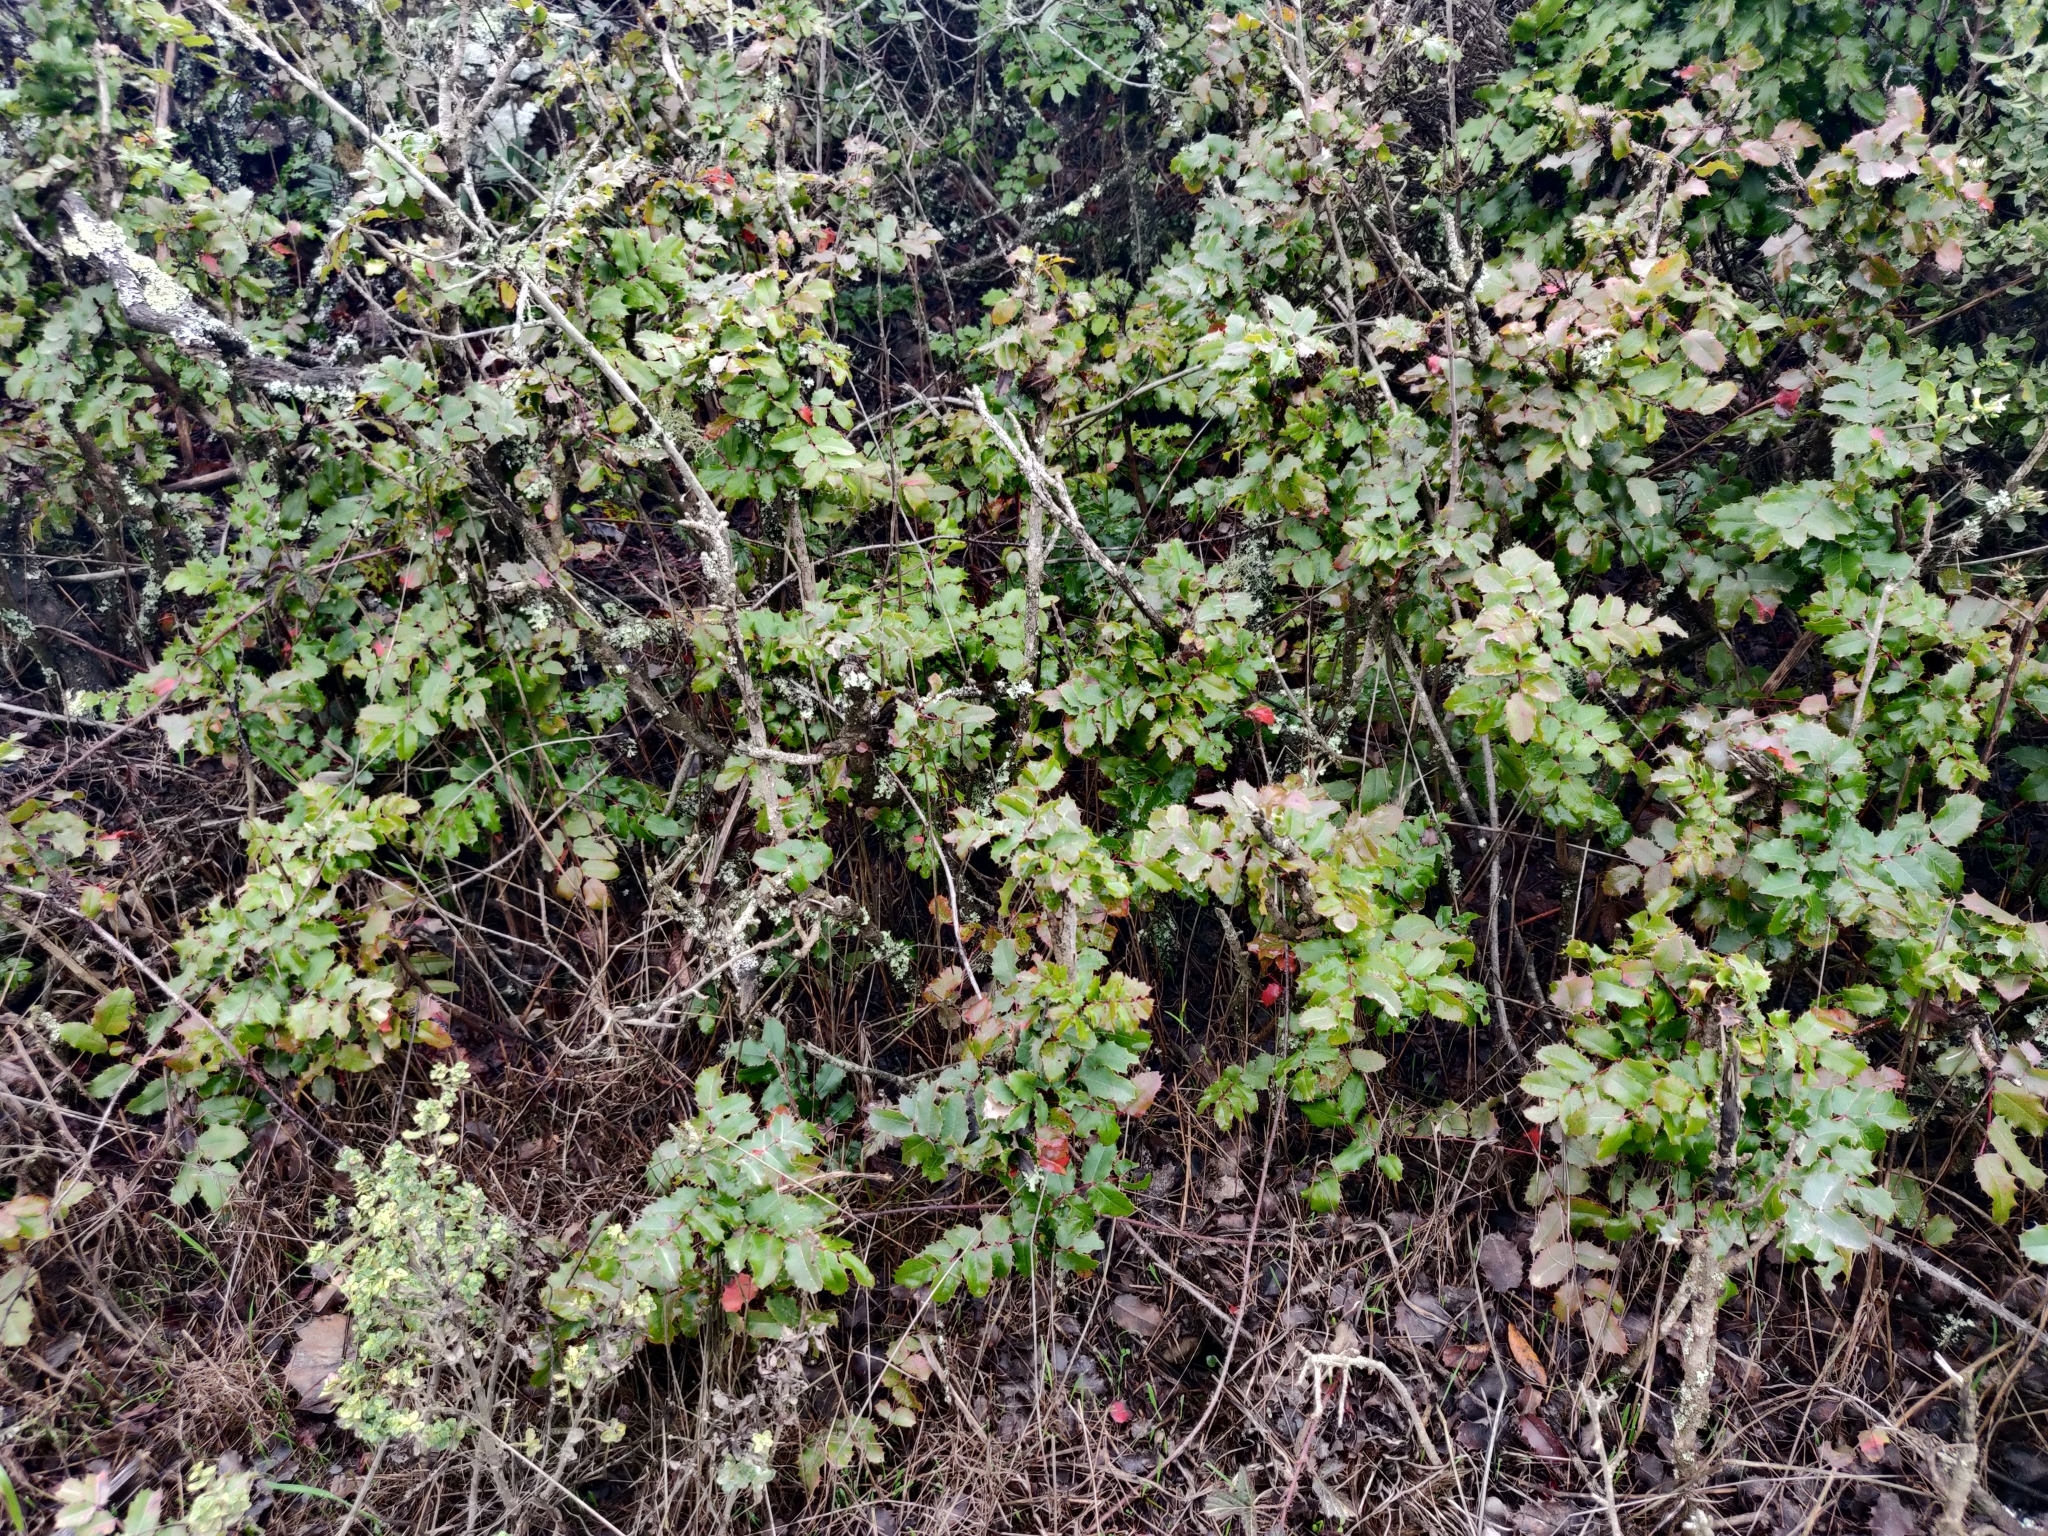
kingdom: Plantae
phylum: Tracheophyta
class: Magnoliopsida
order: Ranunculales
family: Berberidaceae
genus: Mahonia
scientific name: Mahonia
